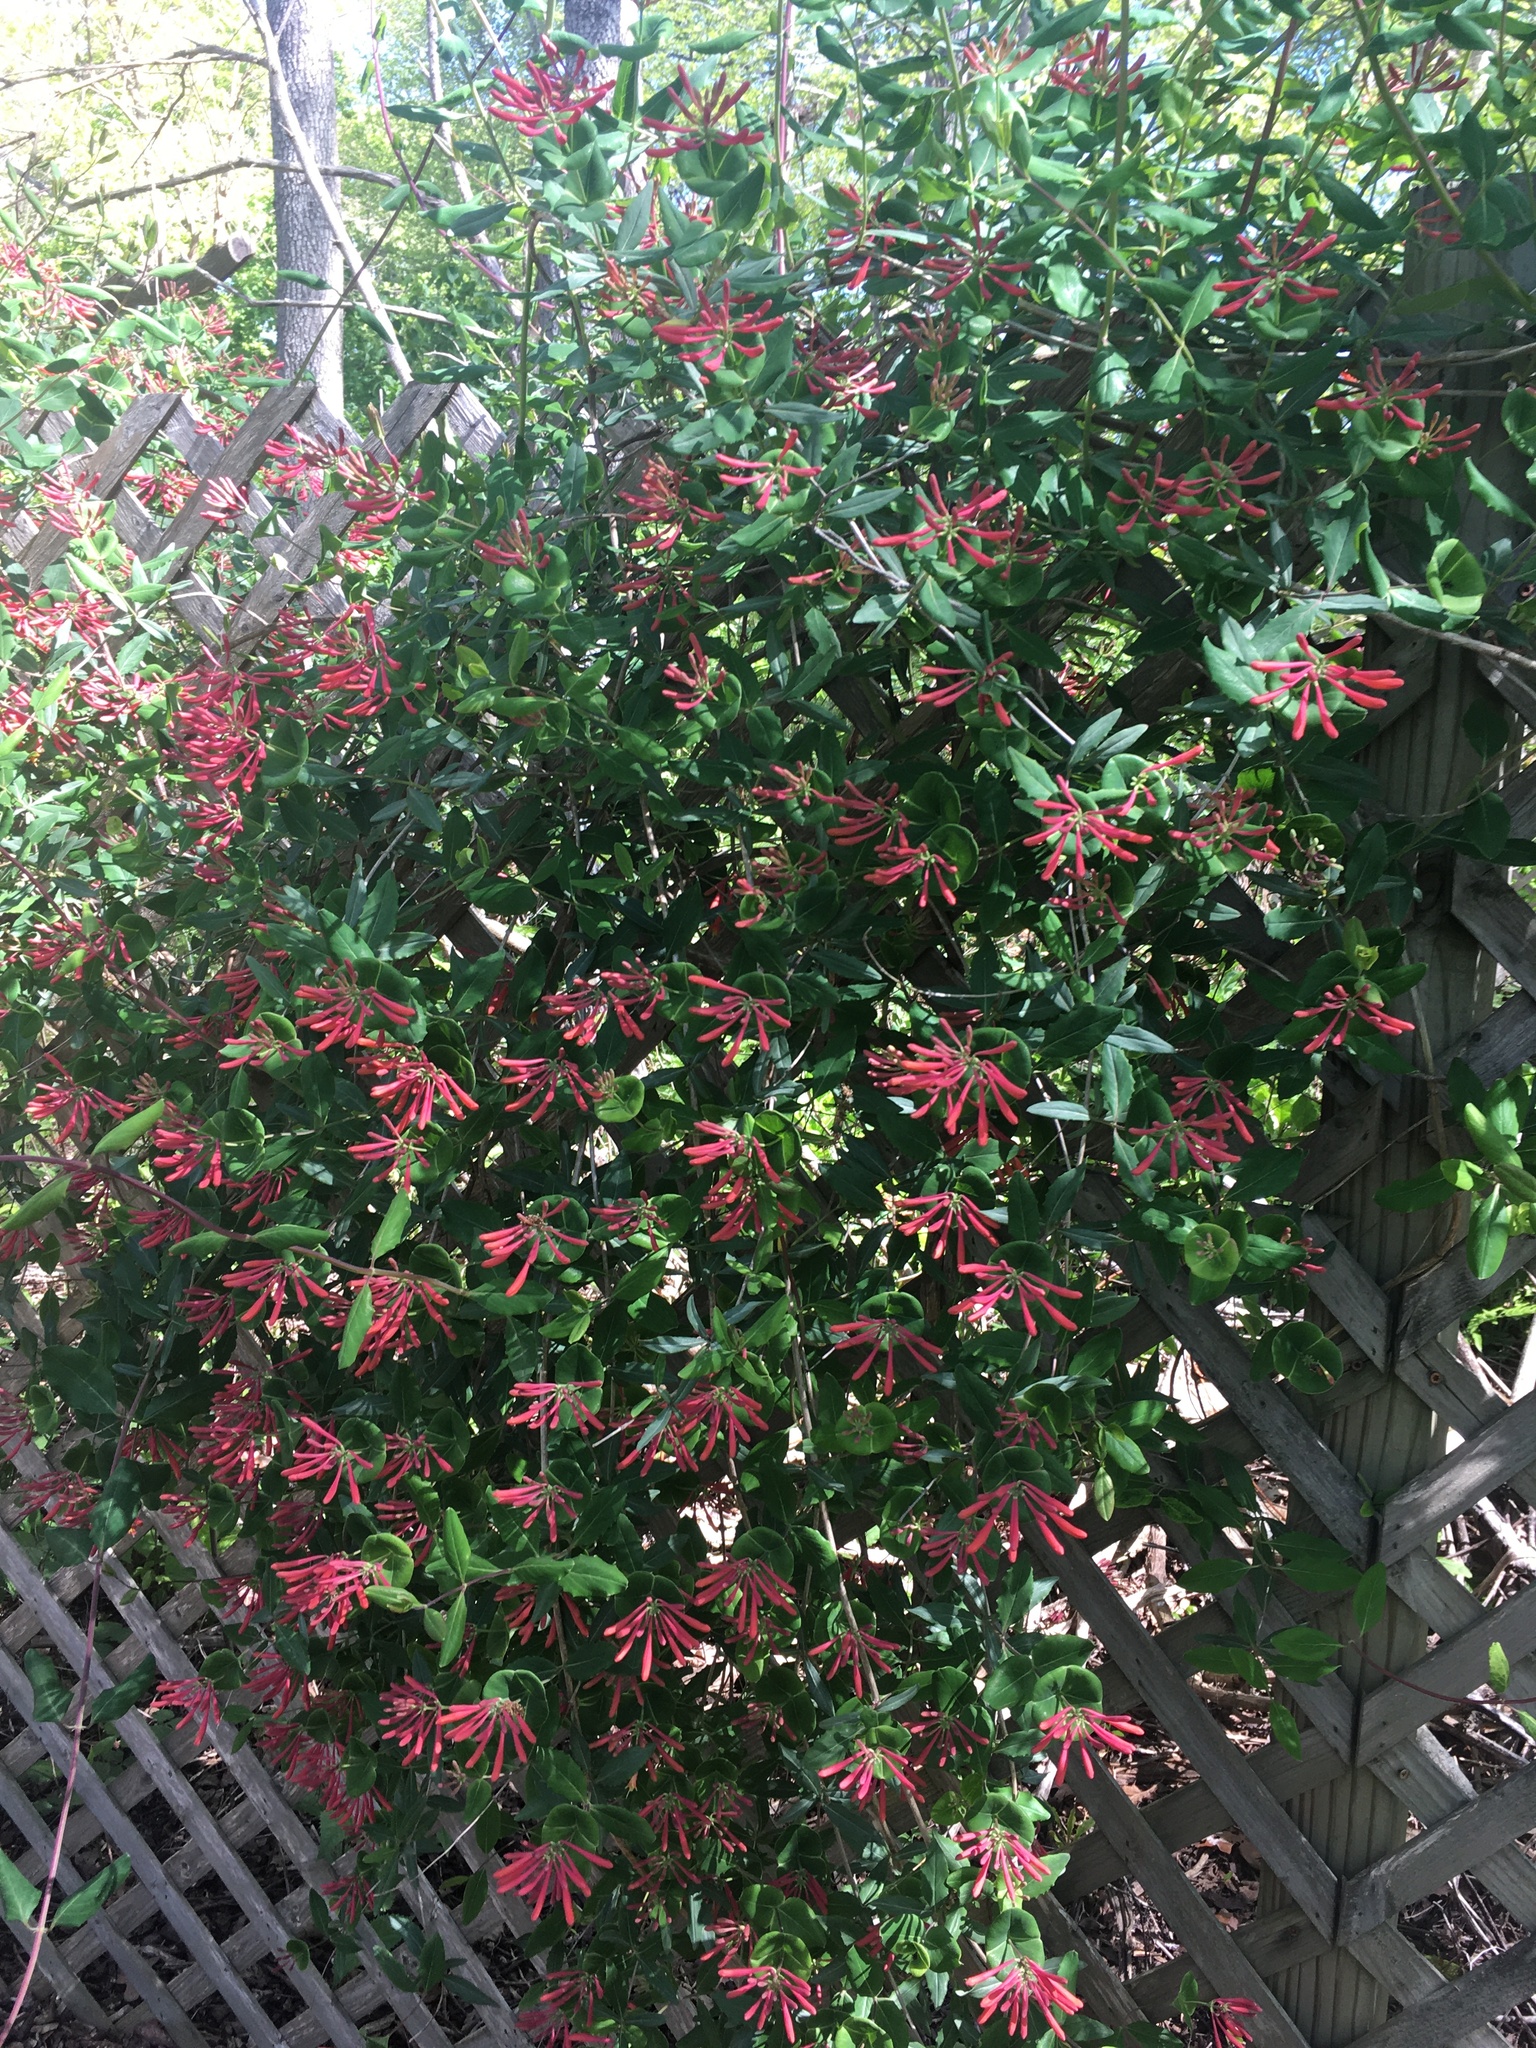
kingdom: Plantae
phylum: Tracheophyta
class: Magnoliopsida
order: Dipsacales
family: Caprifoliaceae
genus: Lonicera
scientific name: Lonicera sempervirens
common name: Coral honeysuckle
